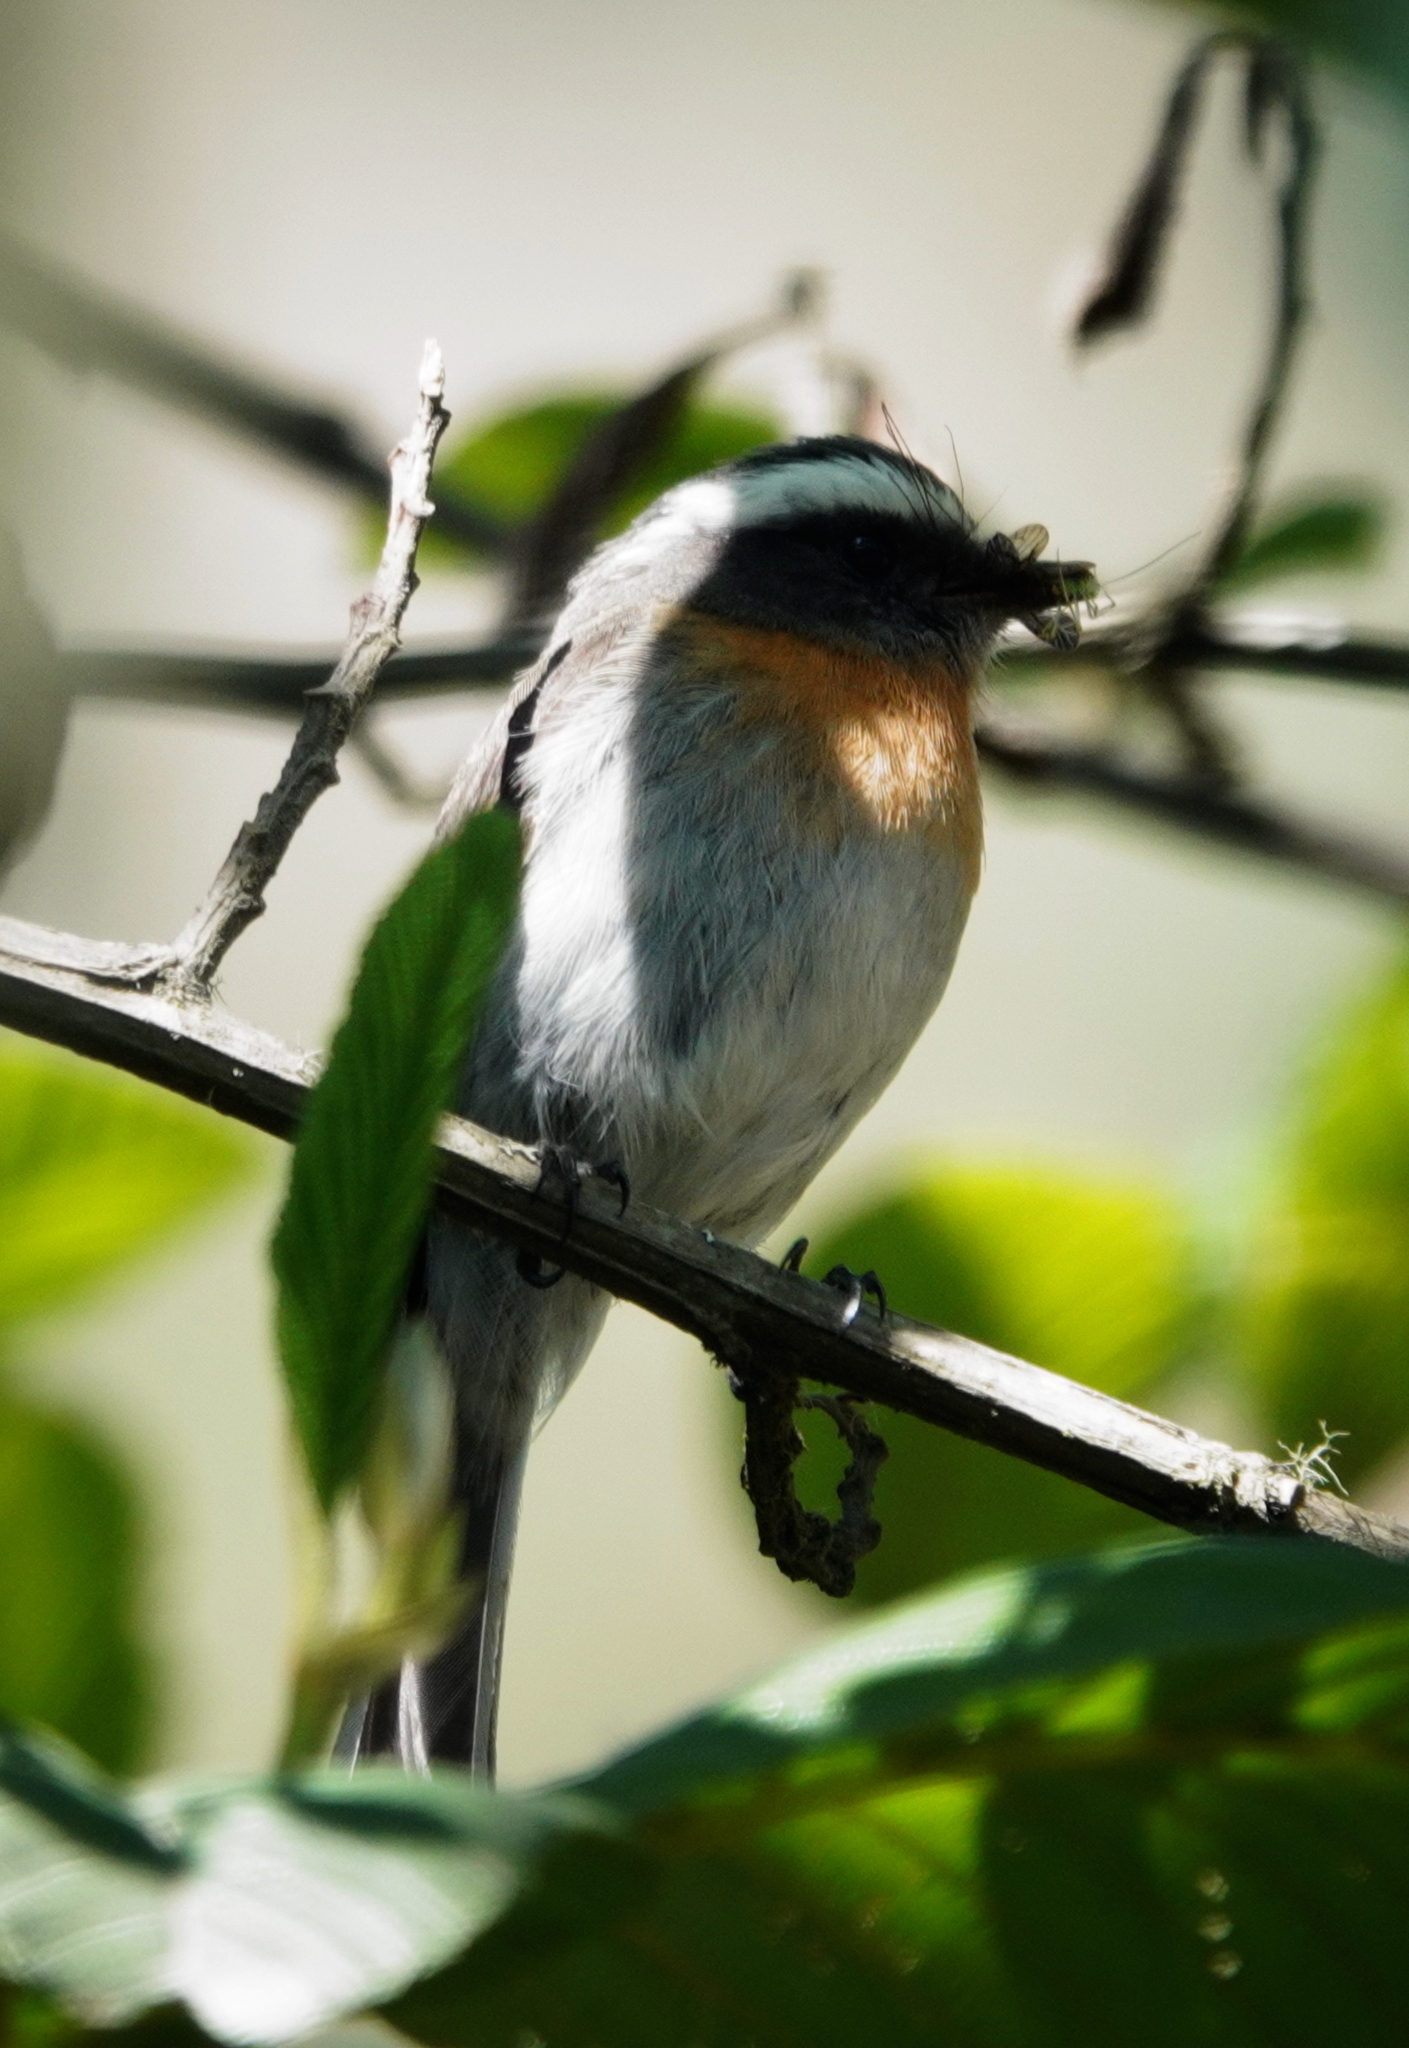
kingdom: Animalia
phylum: Chordata
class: Aves
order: Passeriformes
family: Tyrannidae
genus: Ochthoeca
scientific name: Ochthoeca rufipectoralis
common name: Rufous-breasted chat-tyrant
